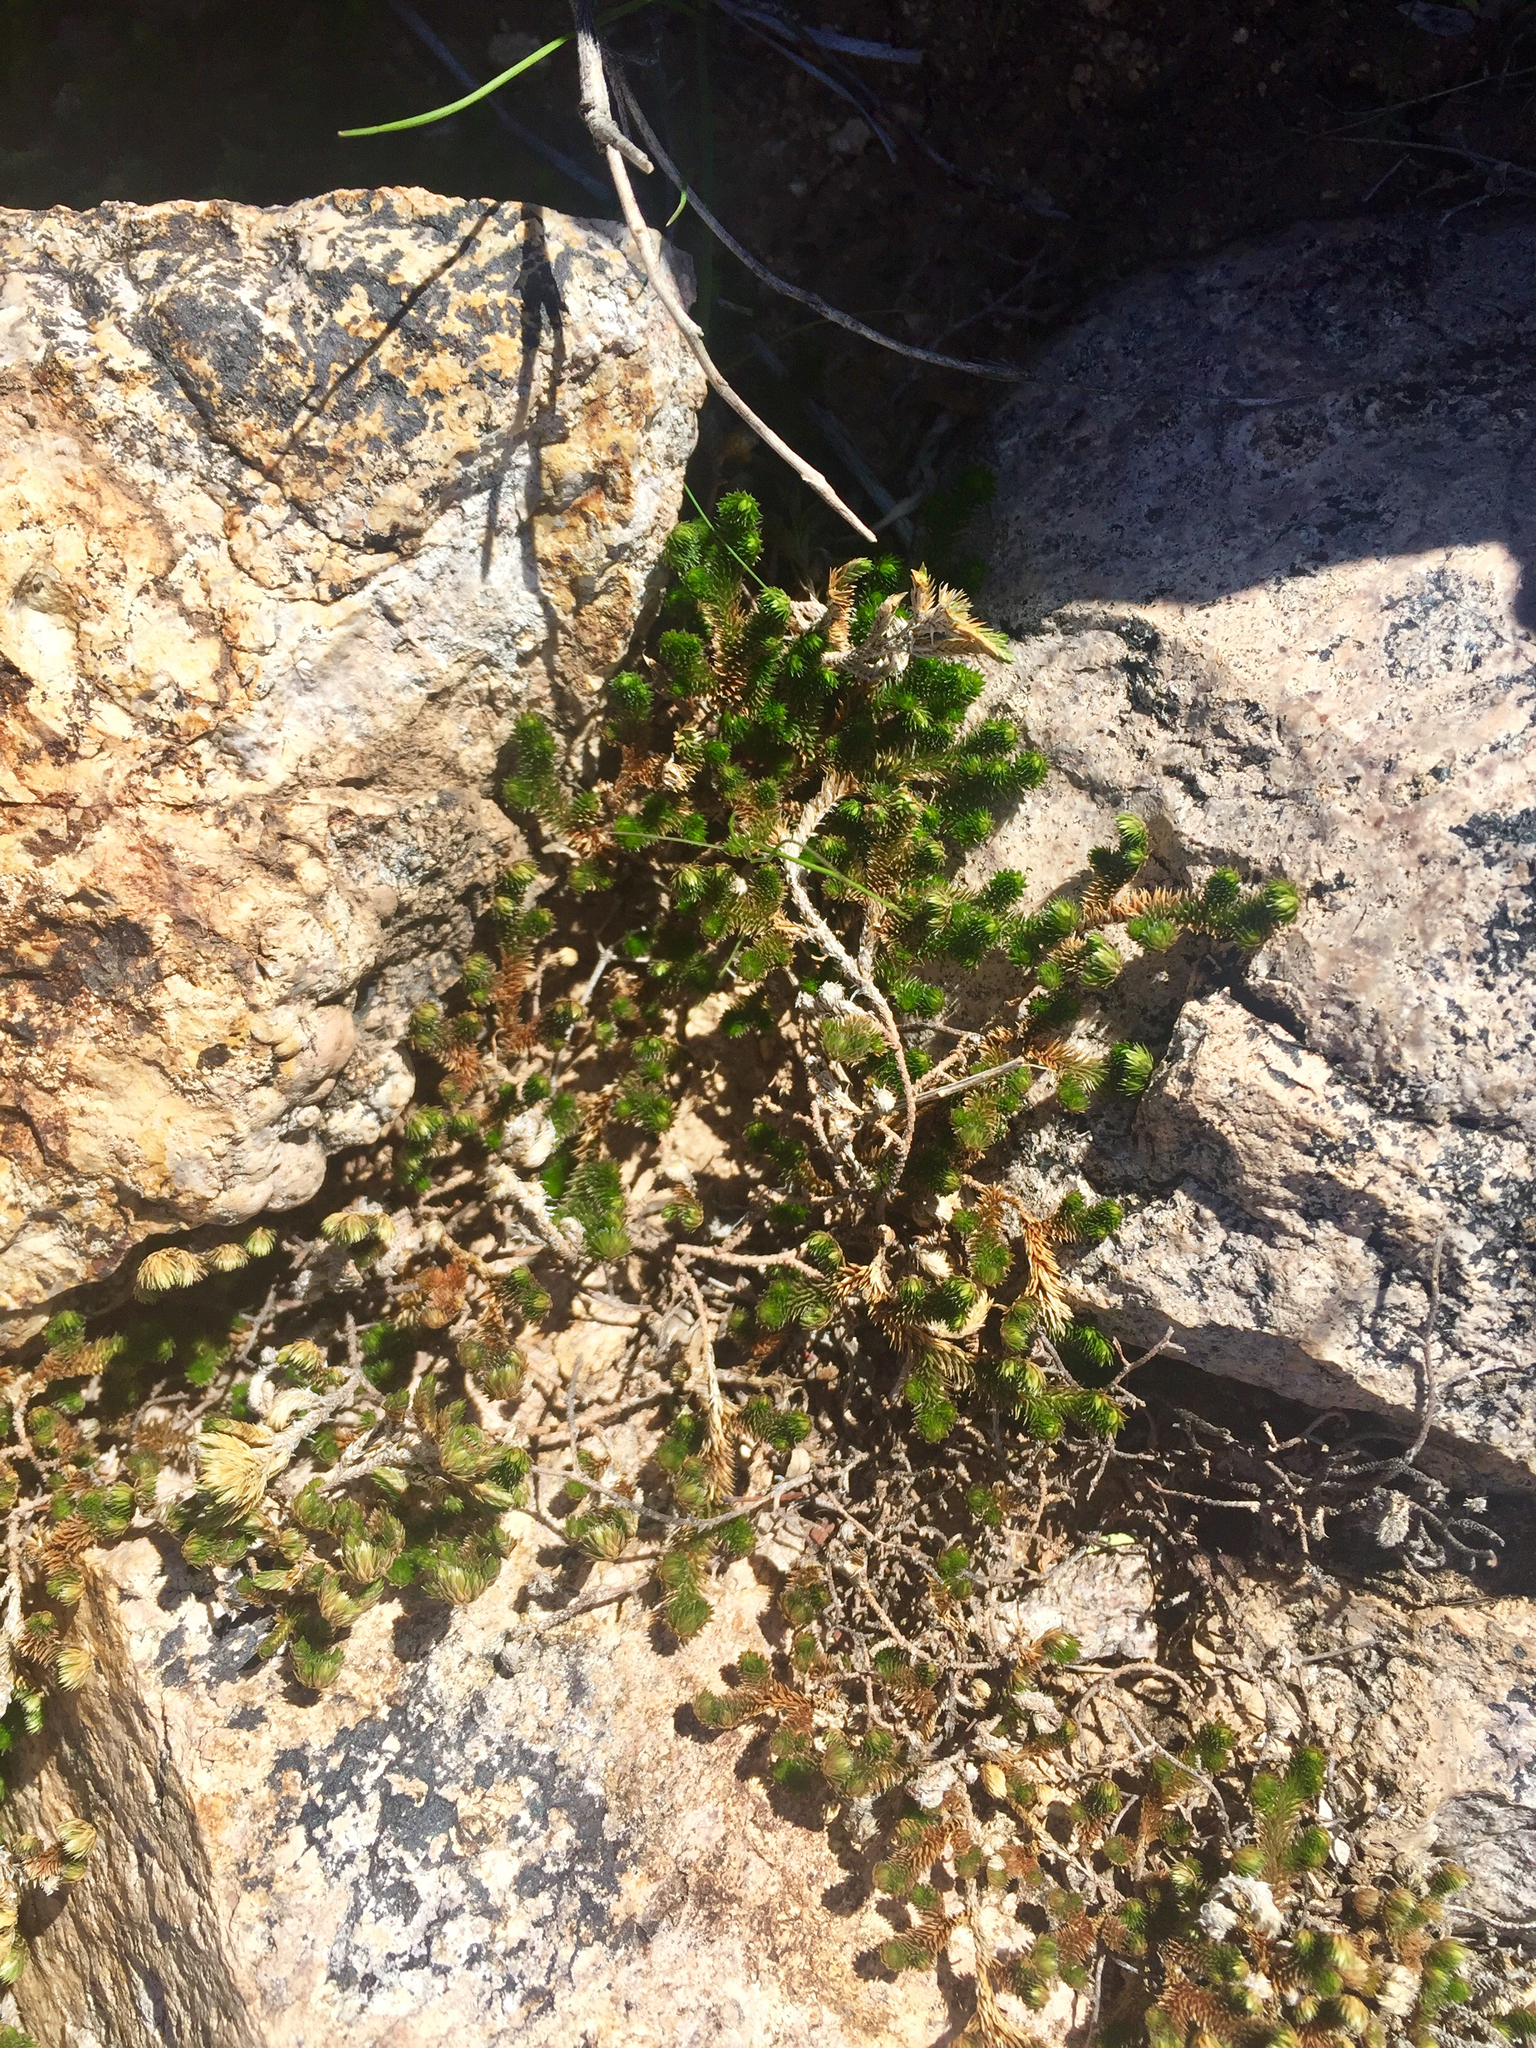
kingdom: Plantae
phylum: Tracheophyta
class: Lycopodiopsida
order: Selaginellales
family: Selaginellaceae
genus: Selaginella
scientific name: Selaginella arizonica
